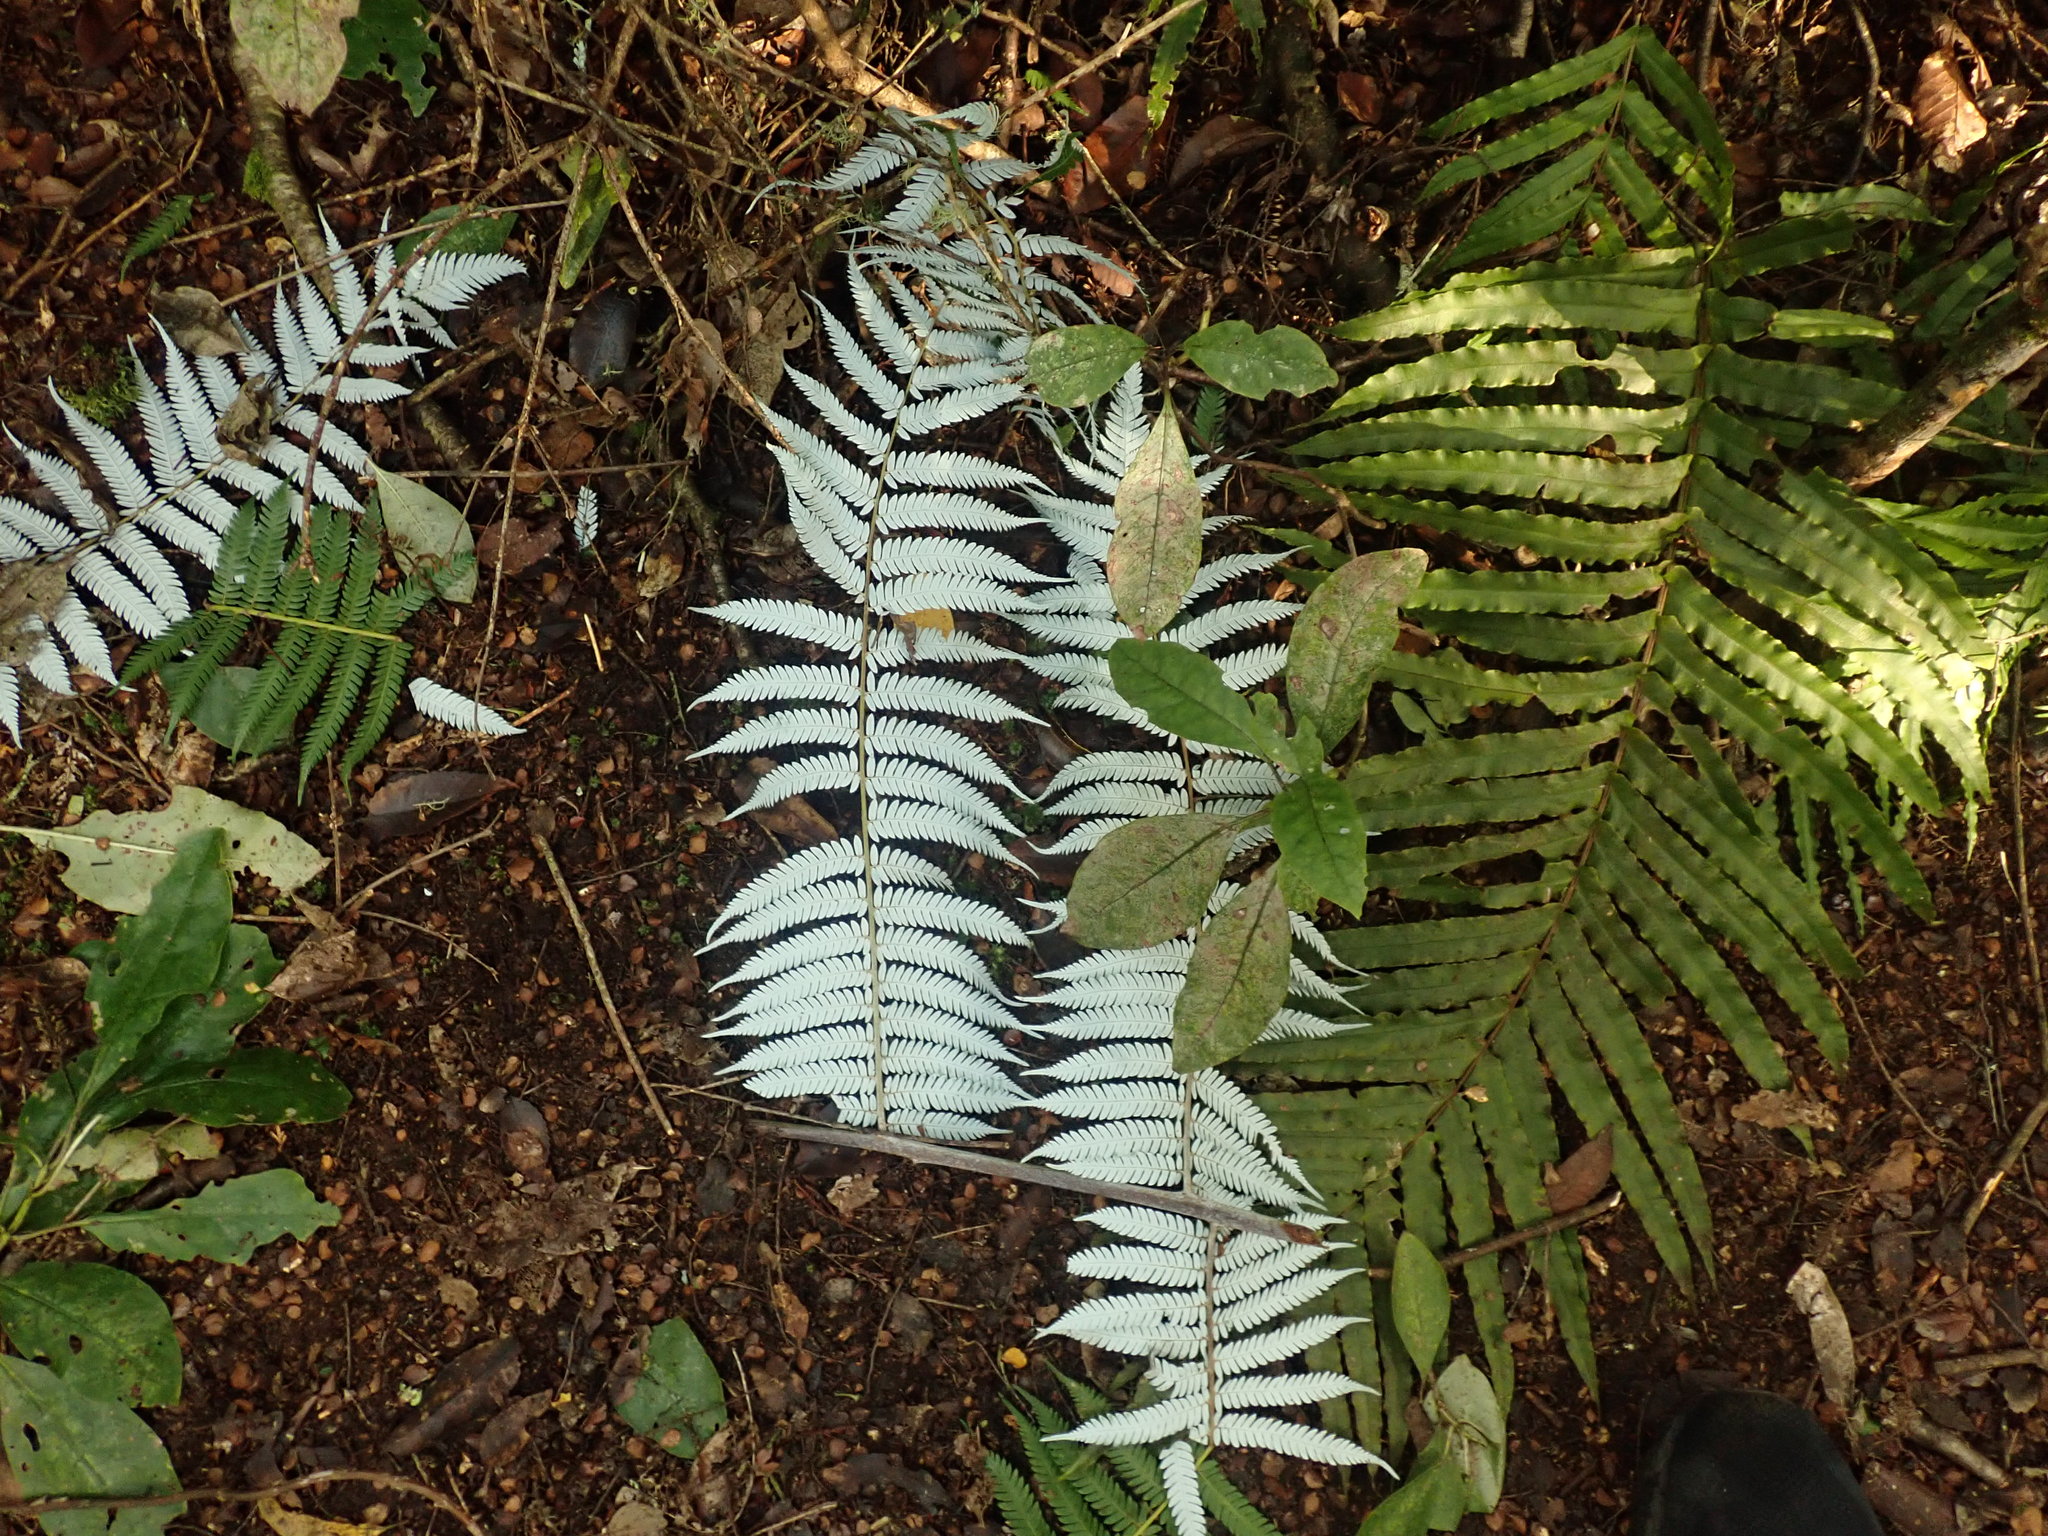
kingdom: Plantae
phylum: Tracheophyta
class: Polypodiopsida
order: Cyatheales
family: Cyatheaceae
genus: Alsophila
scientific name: Alsophila dealbata
